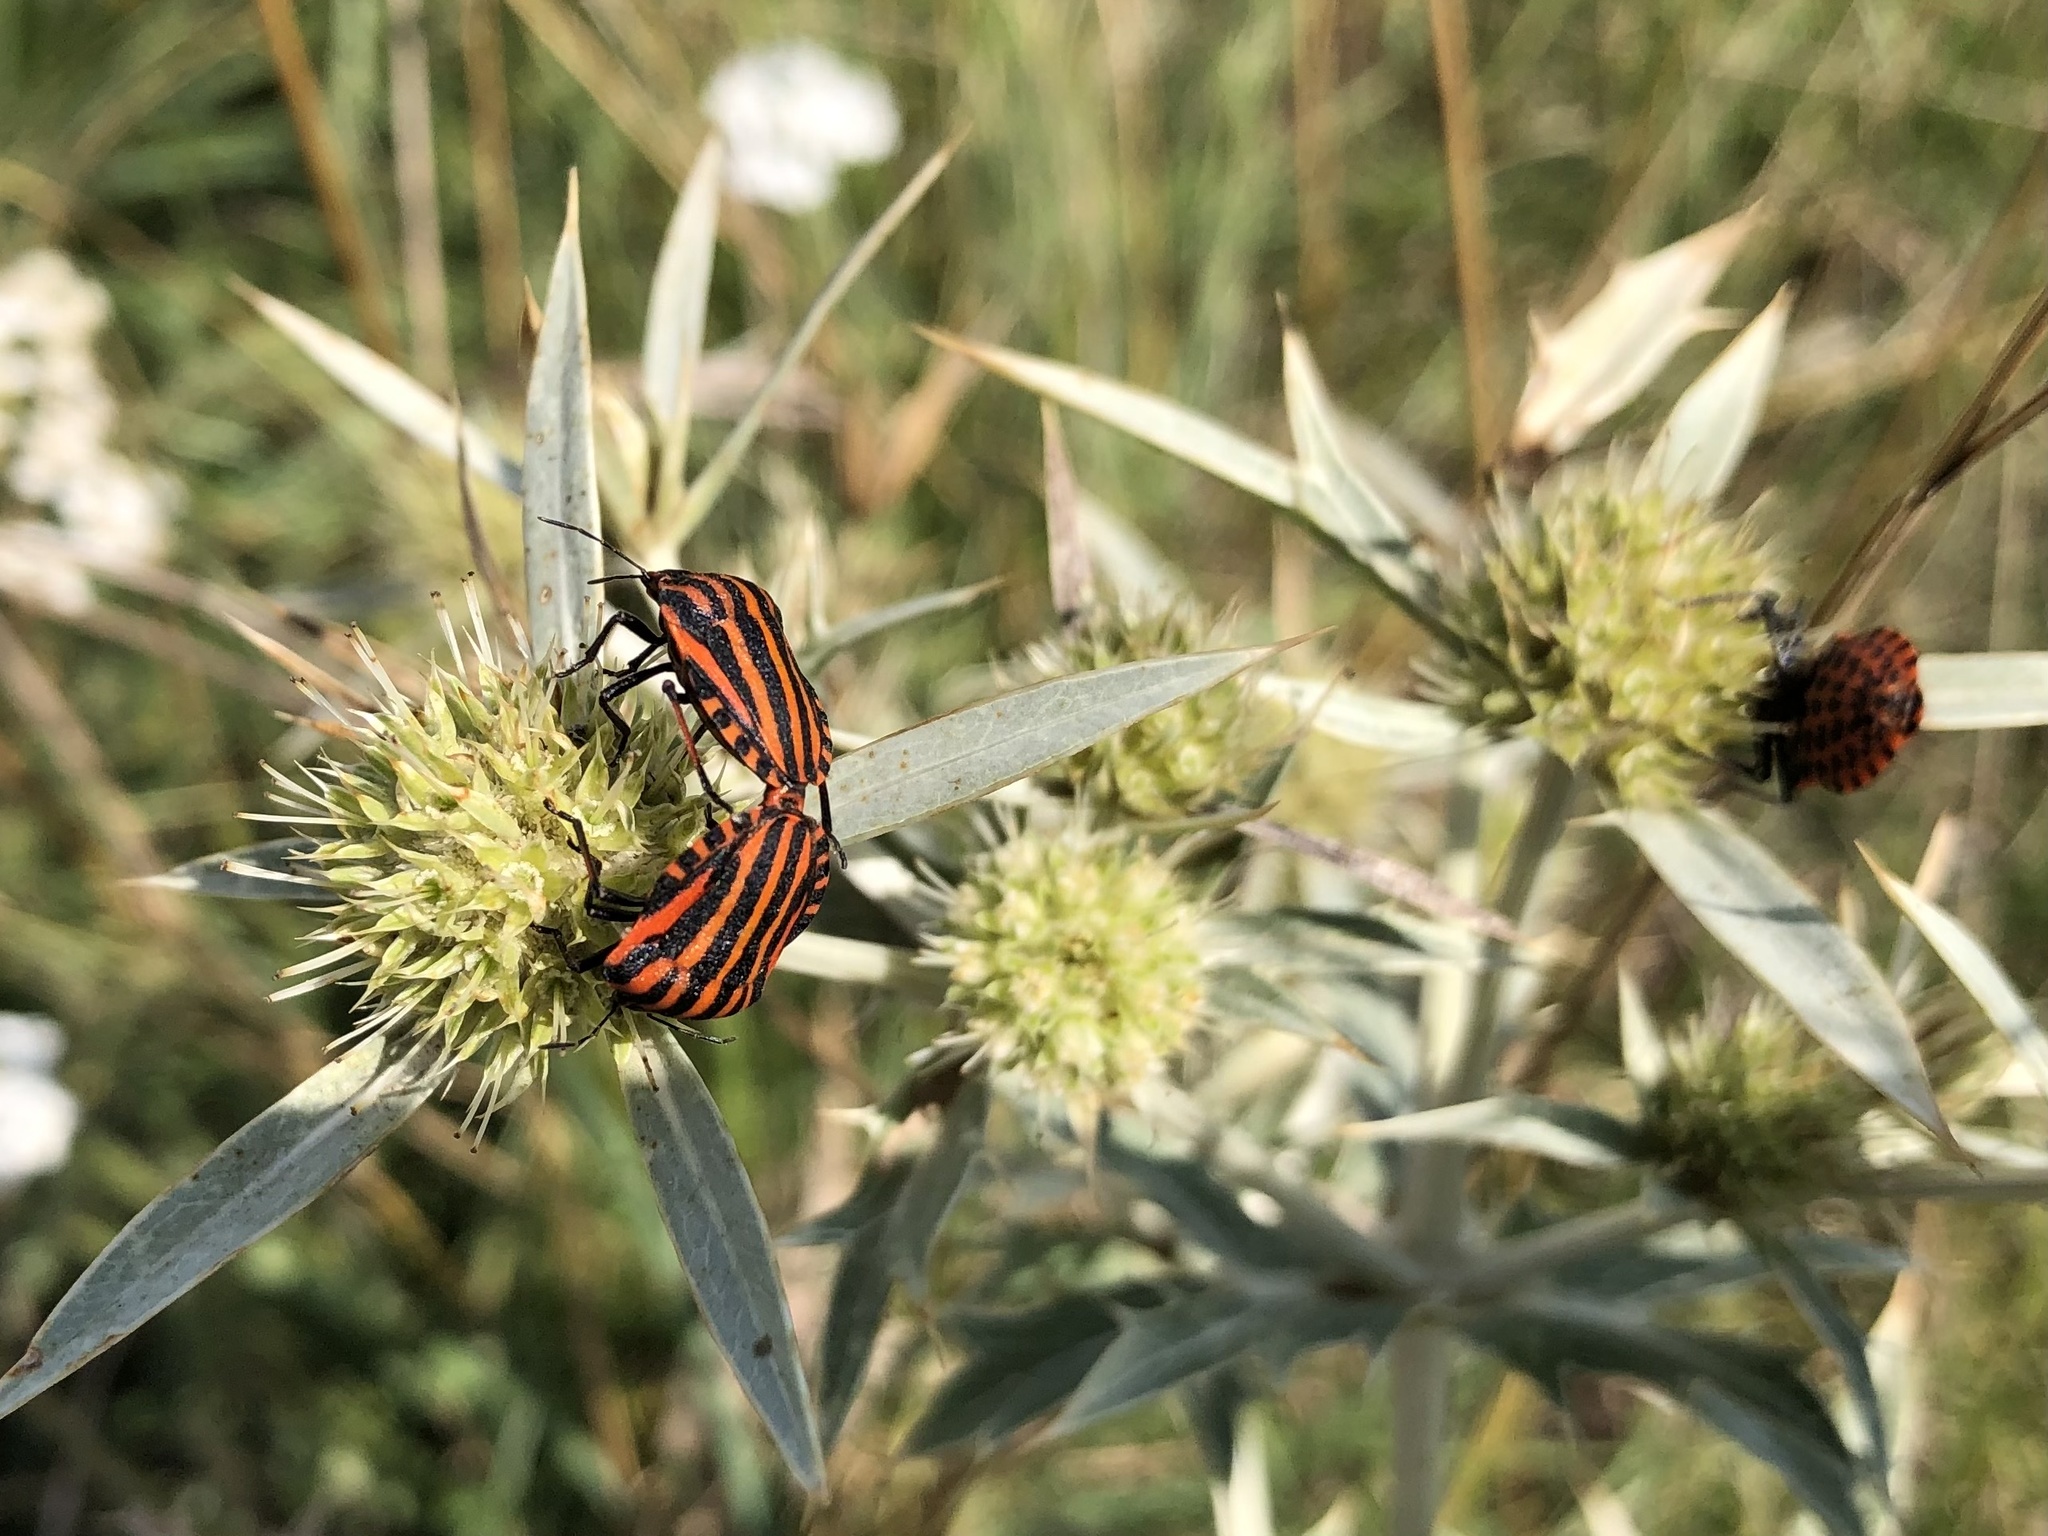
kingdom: Animalia
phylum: Arthropoda
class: Insecta
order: Hemiptera
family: Pentatomidae
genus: Graphosoma
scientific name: Graphosoma italicum
